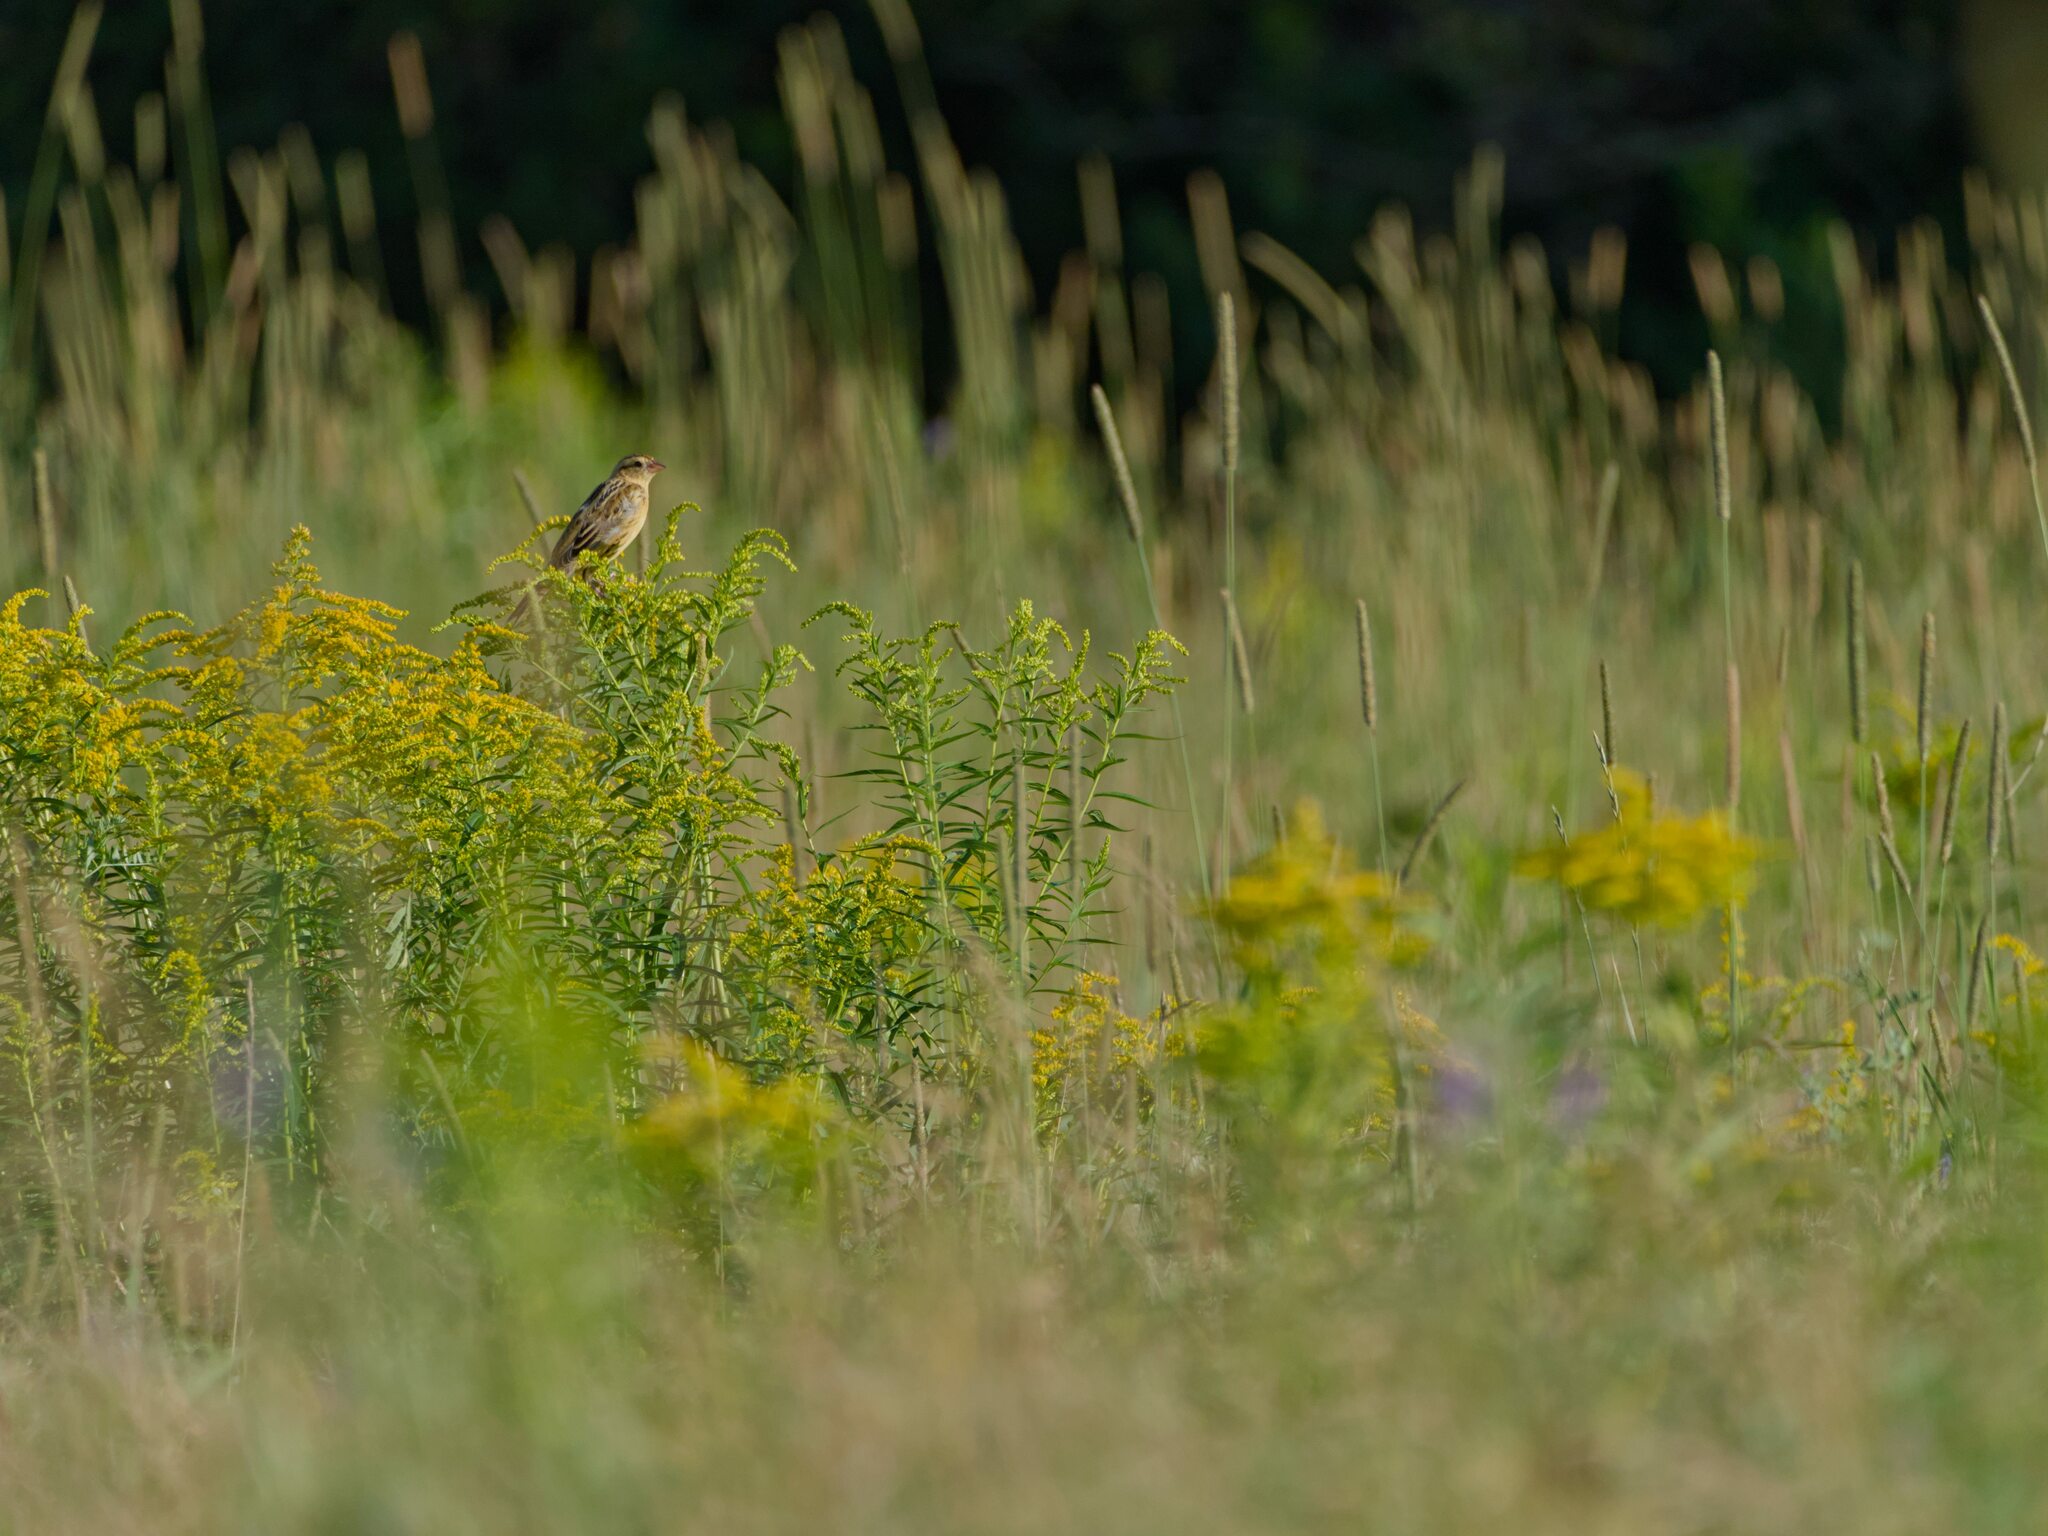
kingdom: Animalia
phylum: Chordata
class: Aves
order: Passeriformes
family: Icteridae
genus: Dolichonyx
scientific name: Dolichonyx oryzivorus
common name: Bobolink
